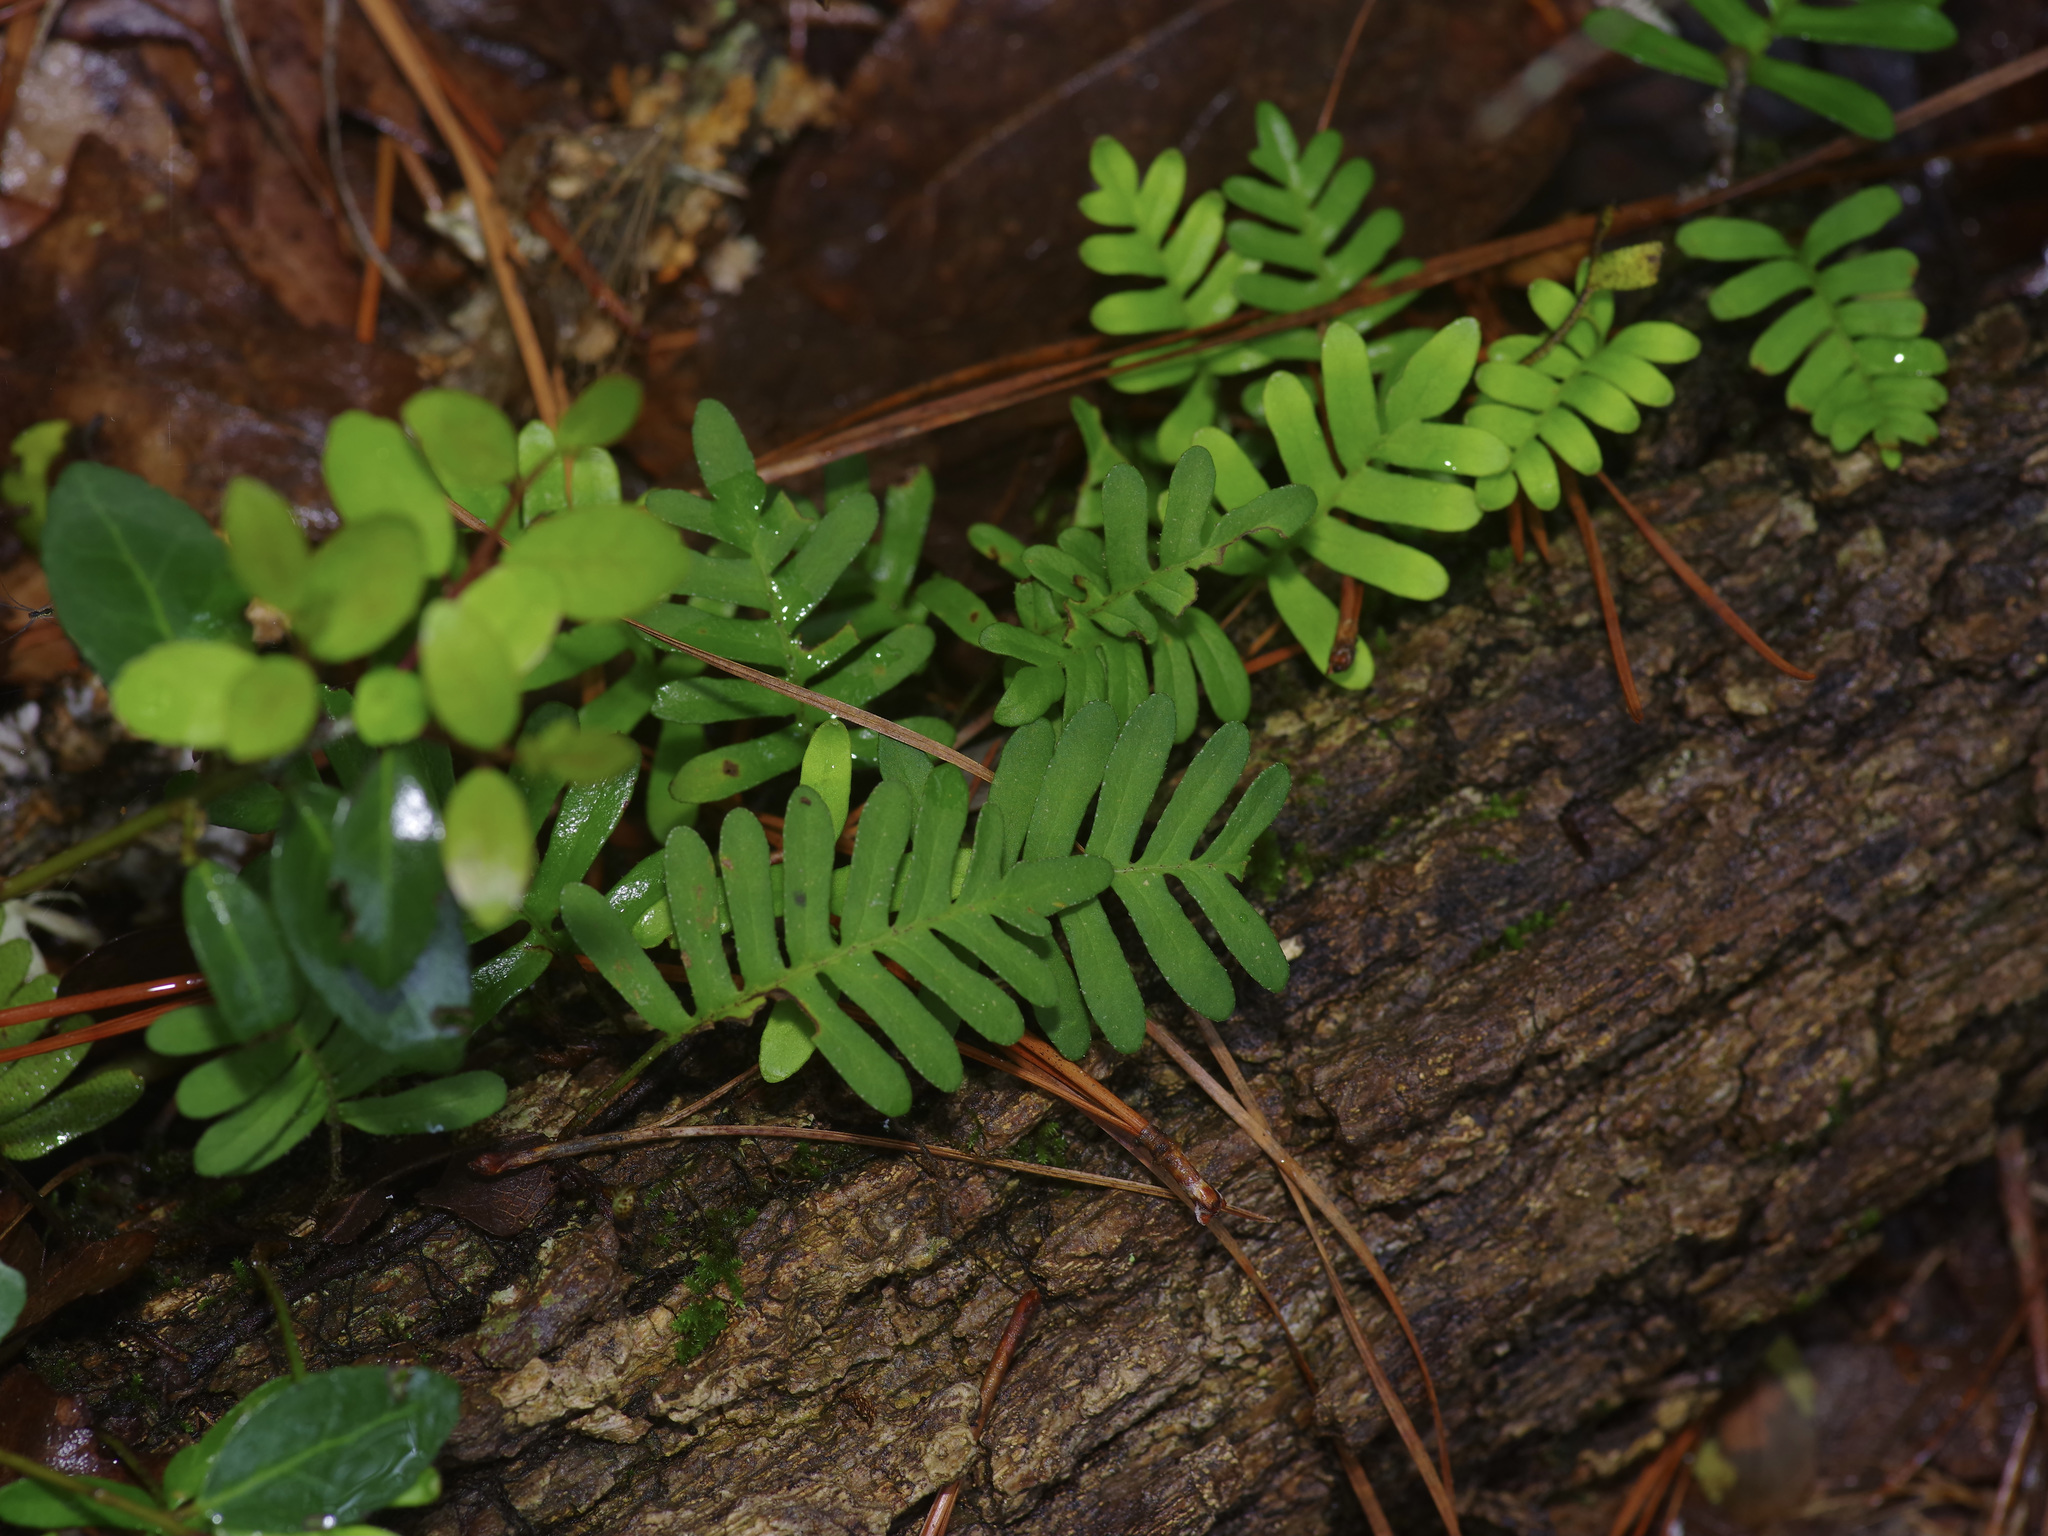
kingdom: Plantae
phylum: Tracheophyta
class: Polypodiopsida
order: Polypodiales
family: Polypodiaceae
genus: Pleopeltis
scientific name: Pleopeltis michauxiana
